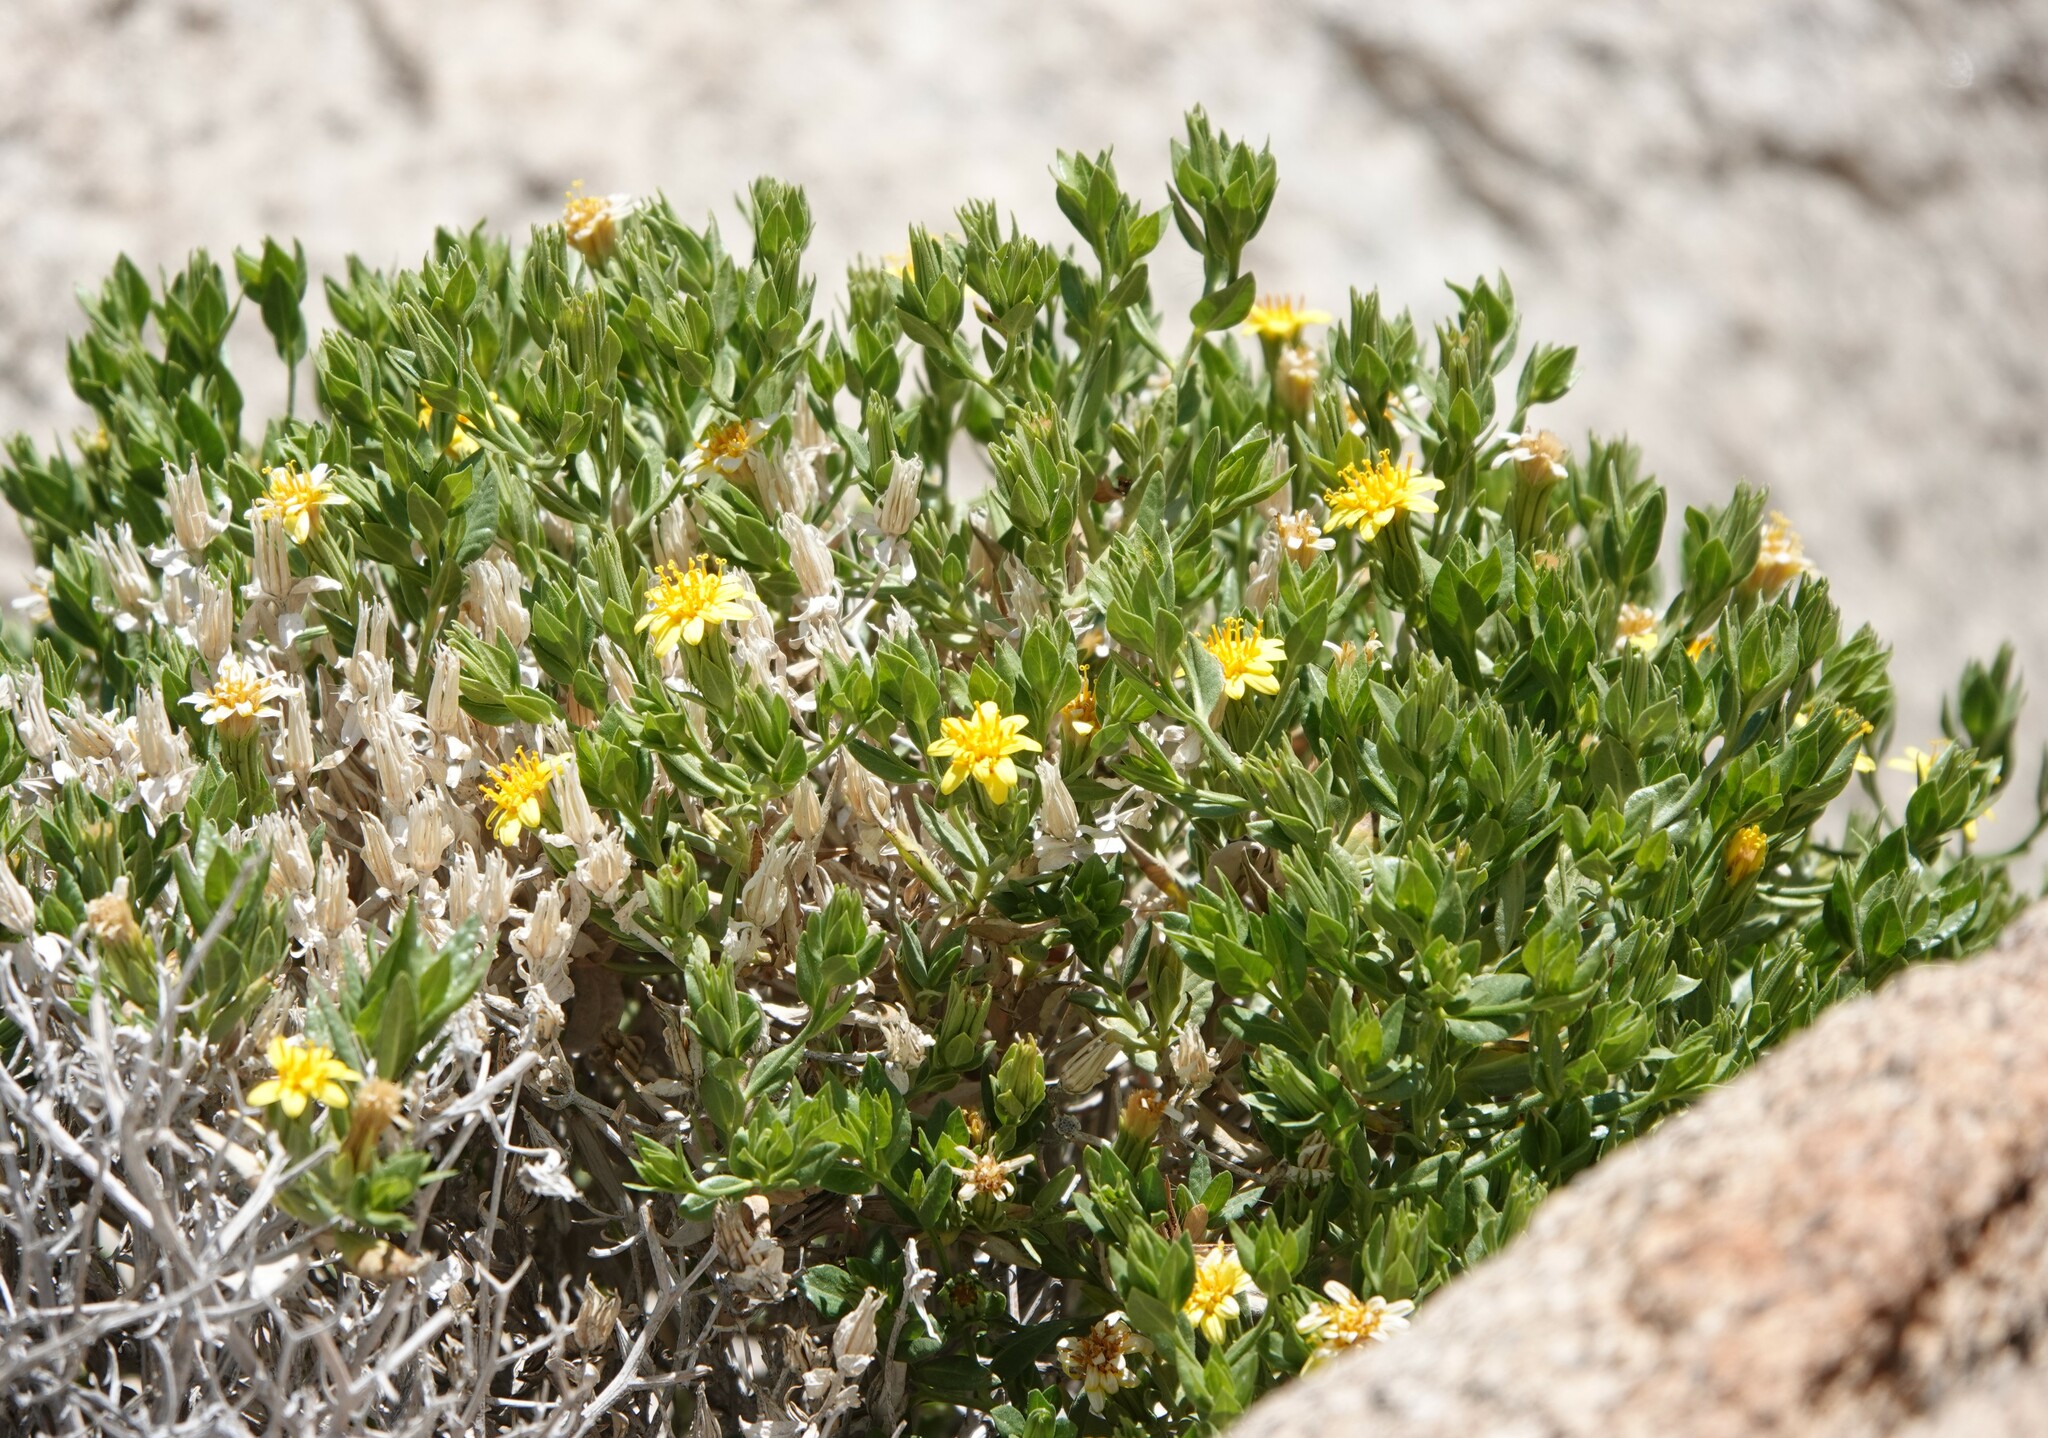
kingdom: Plantae
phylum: Tracheophyta
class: Magnoliopsida
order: Asterales
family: Asteraceae
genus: Trixis
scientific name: Trixis californica
